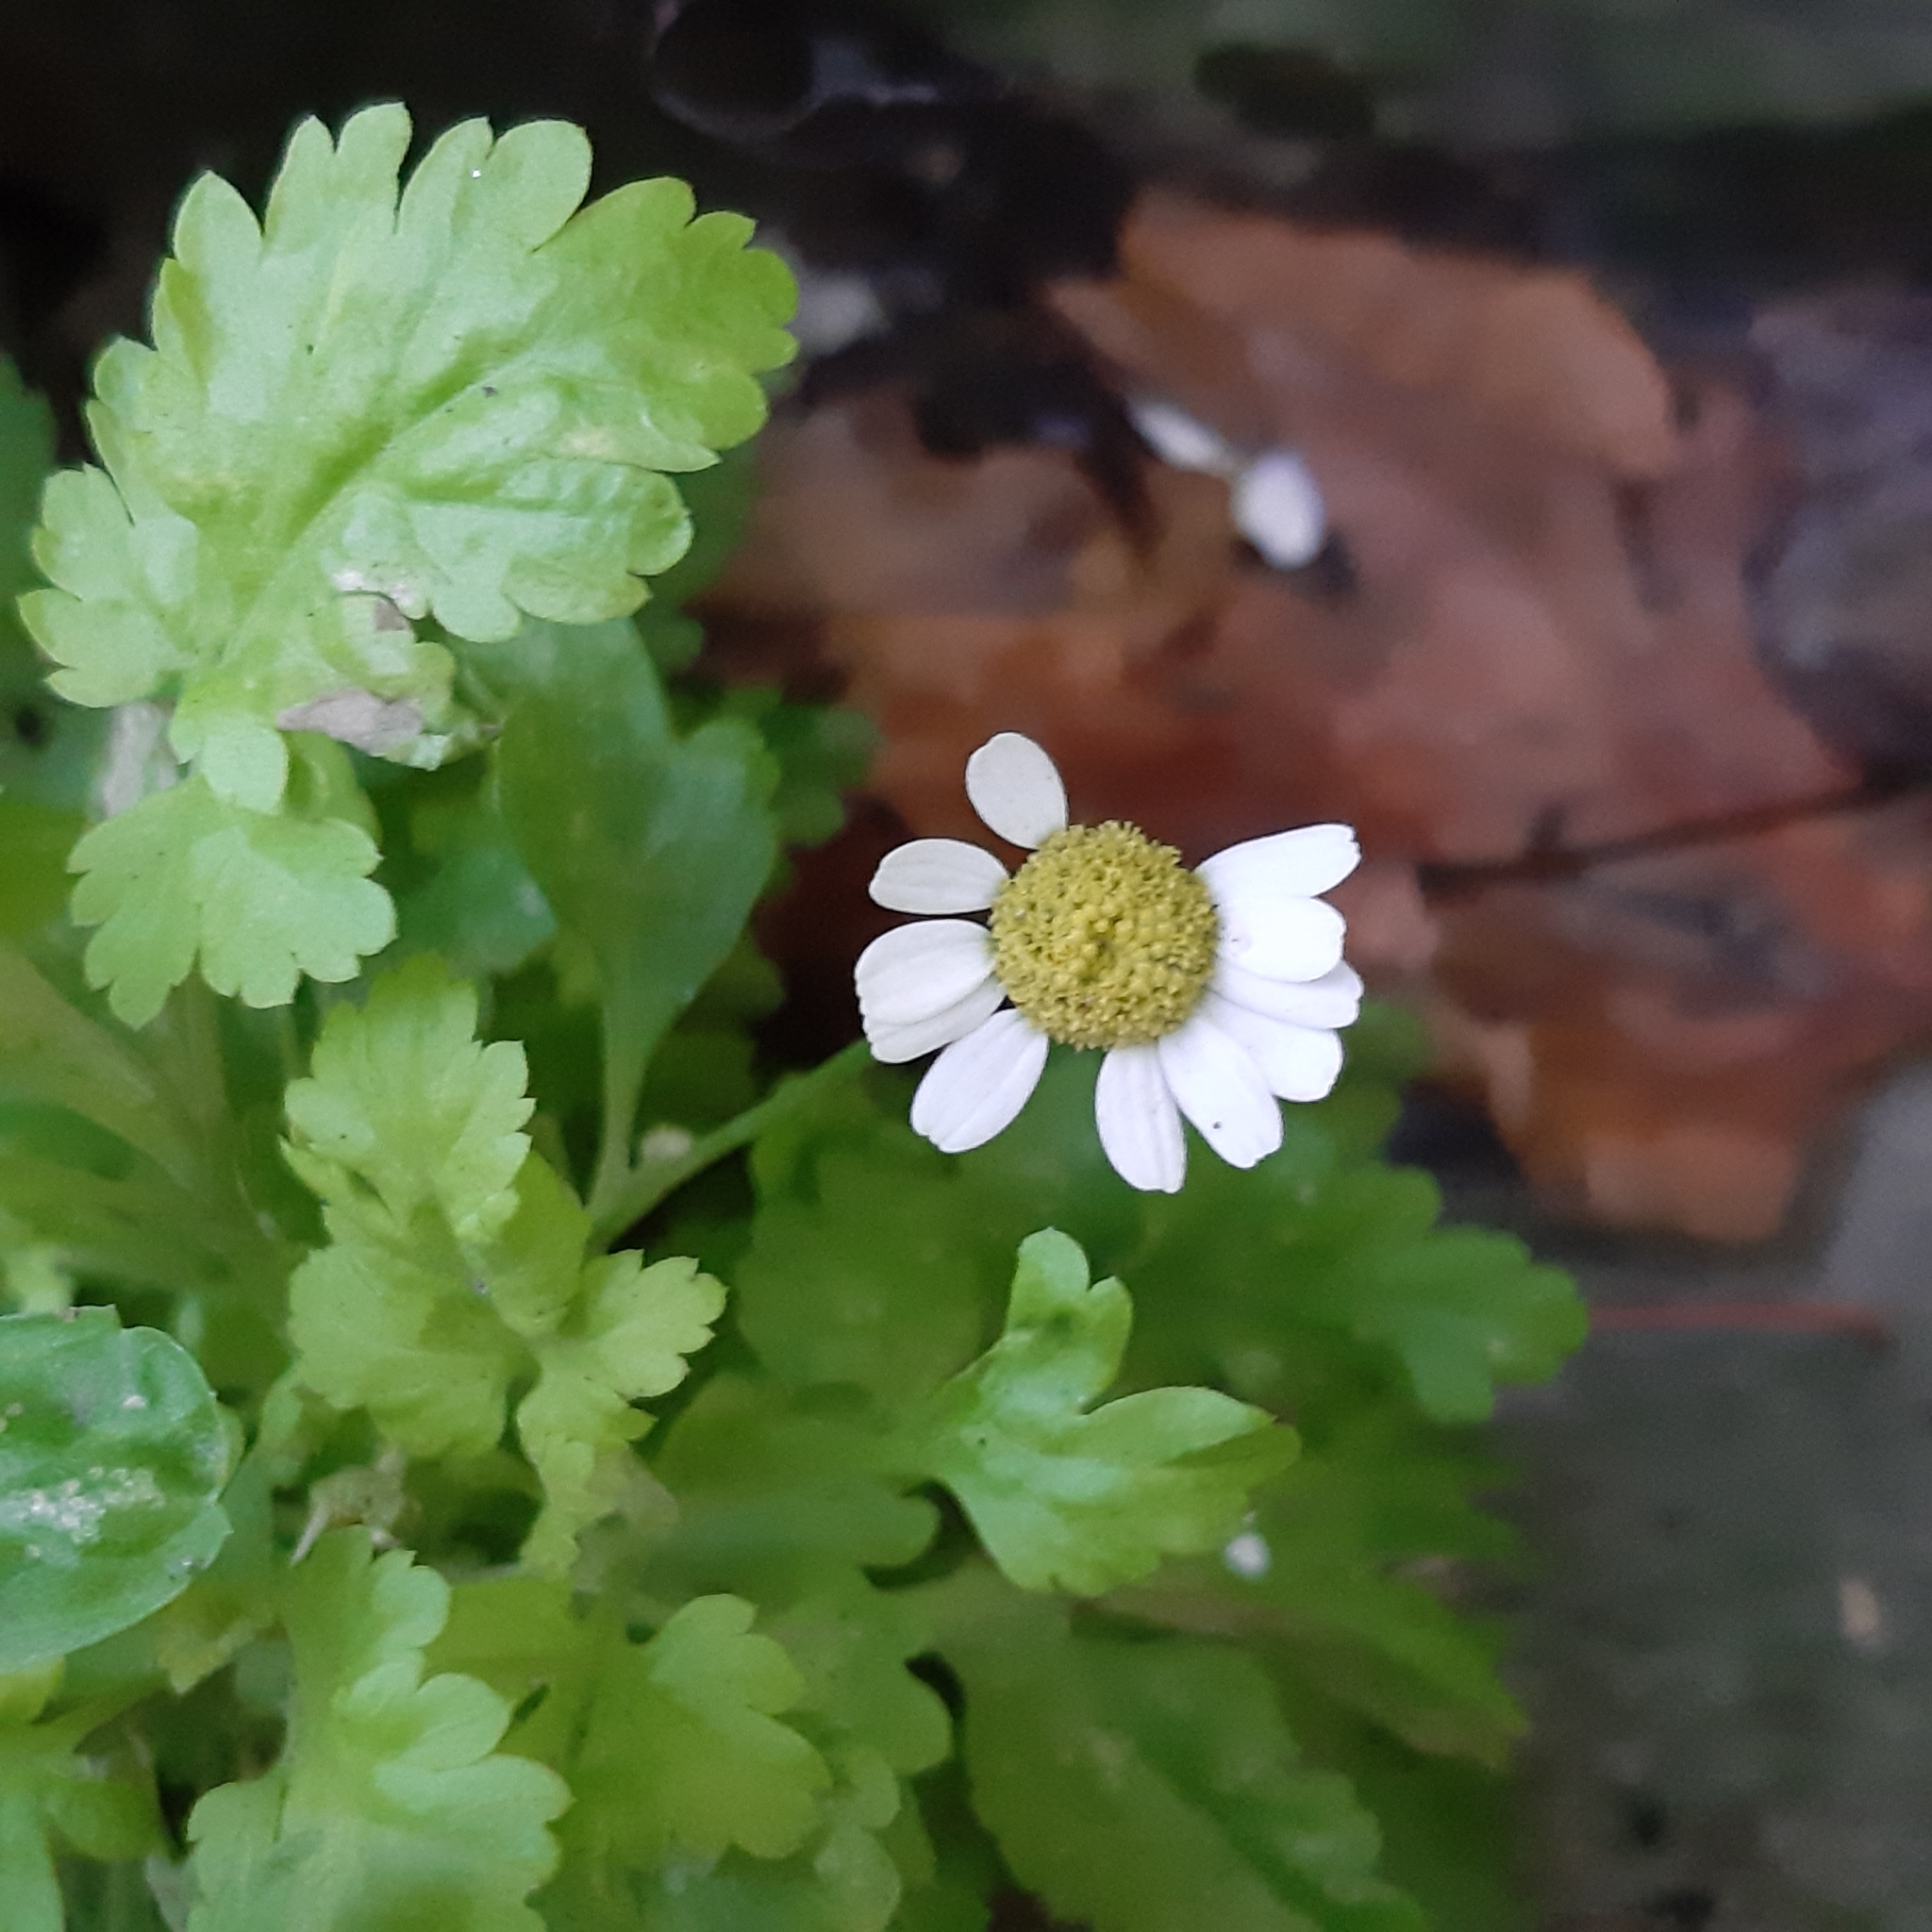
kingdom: Plantae
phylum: Tracheophyta
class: Magnoliopsida
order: Asterales
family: Asteraceae
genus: Tanacetum
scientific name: Tanacetum parthenium
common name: Feverfew
